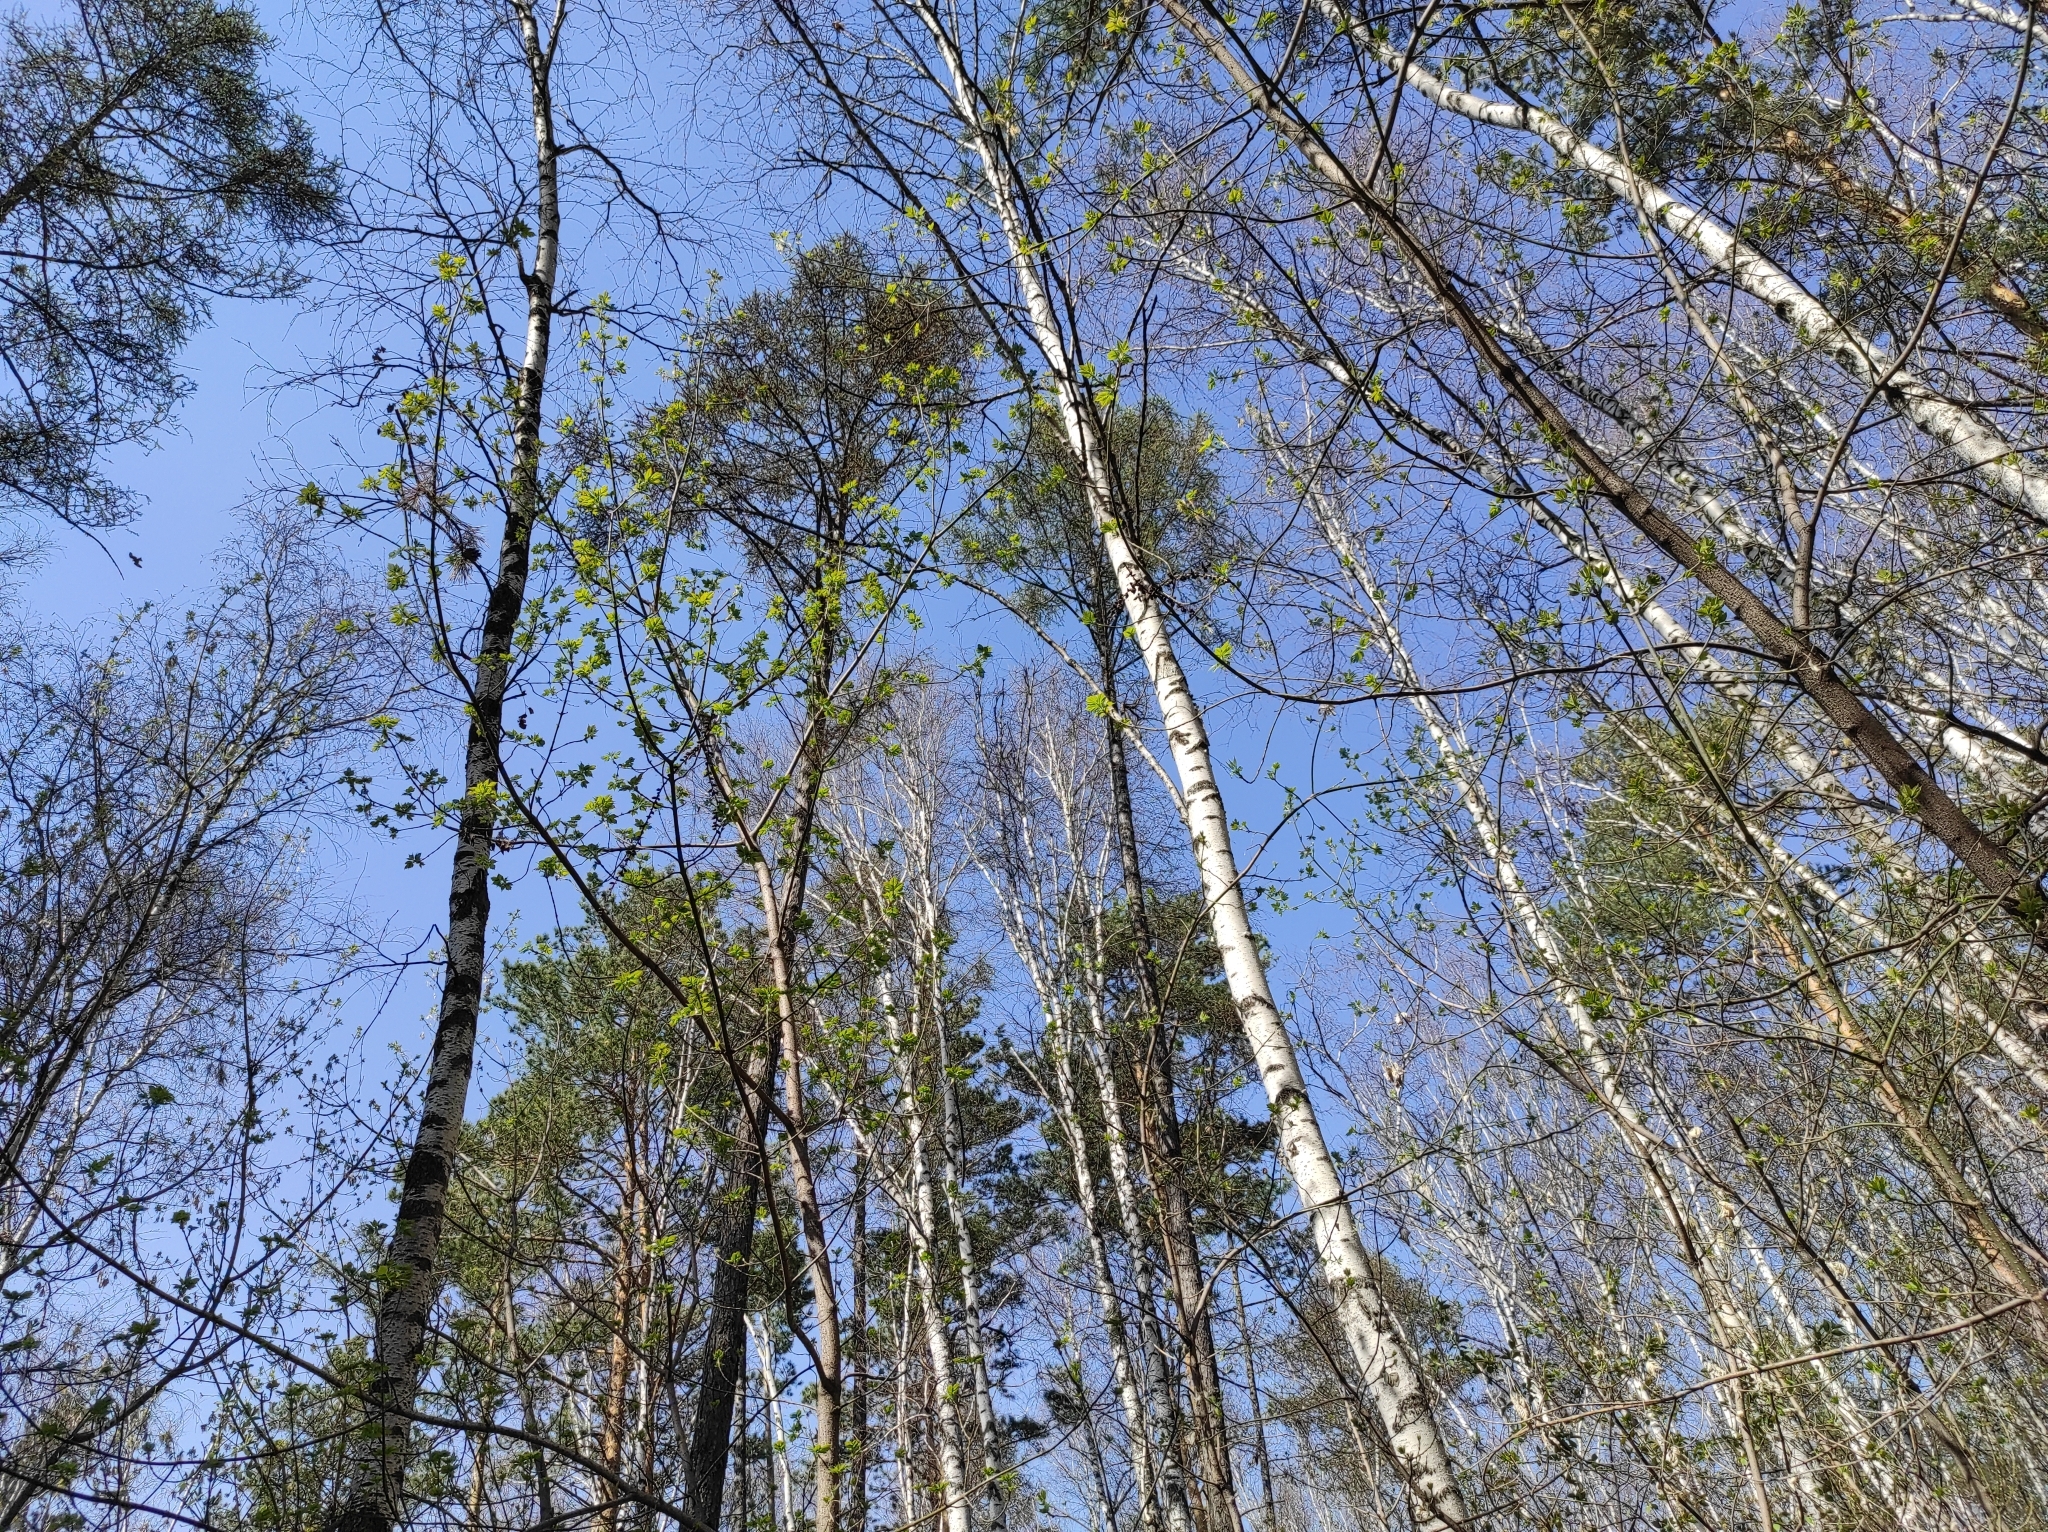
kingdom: Plantae
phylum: Tracheophyta
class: Pinopsida
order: Pinales
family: Pinaceae
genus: Pinus
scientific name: Pinus sylvestris
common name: Scots pine
